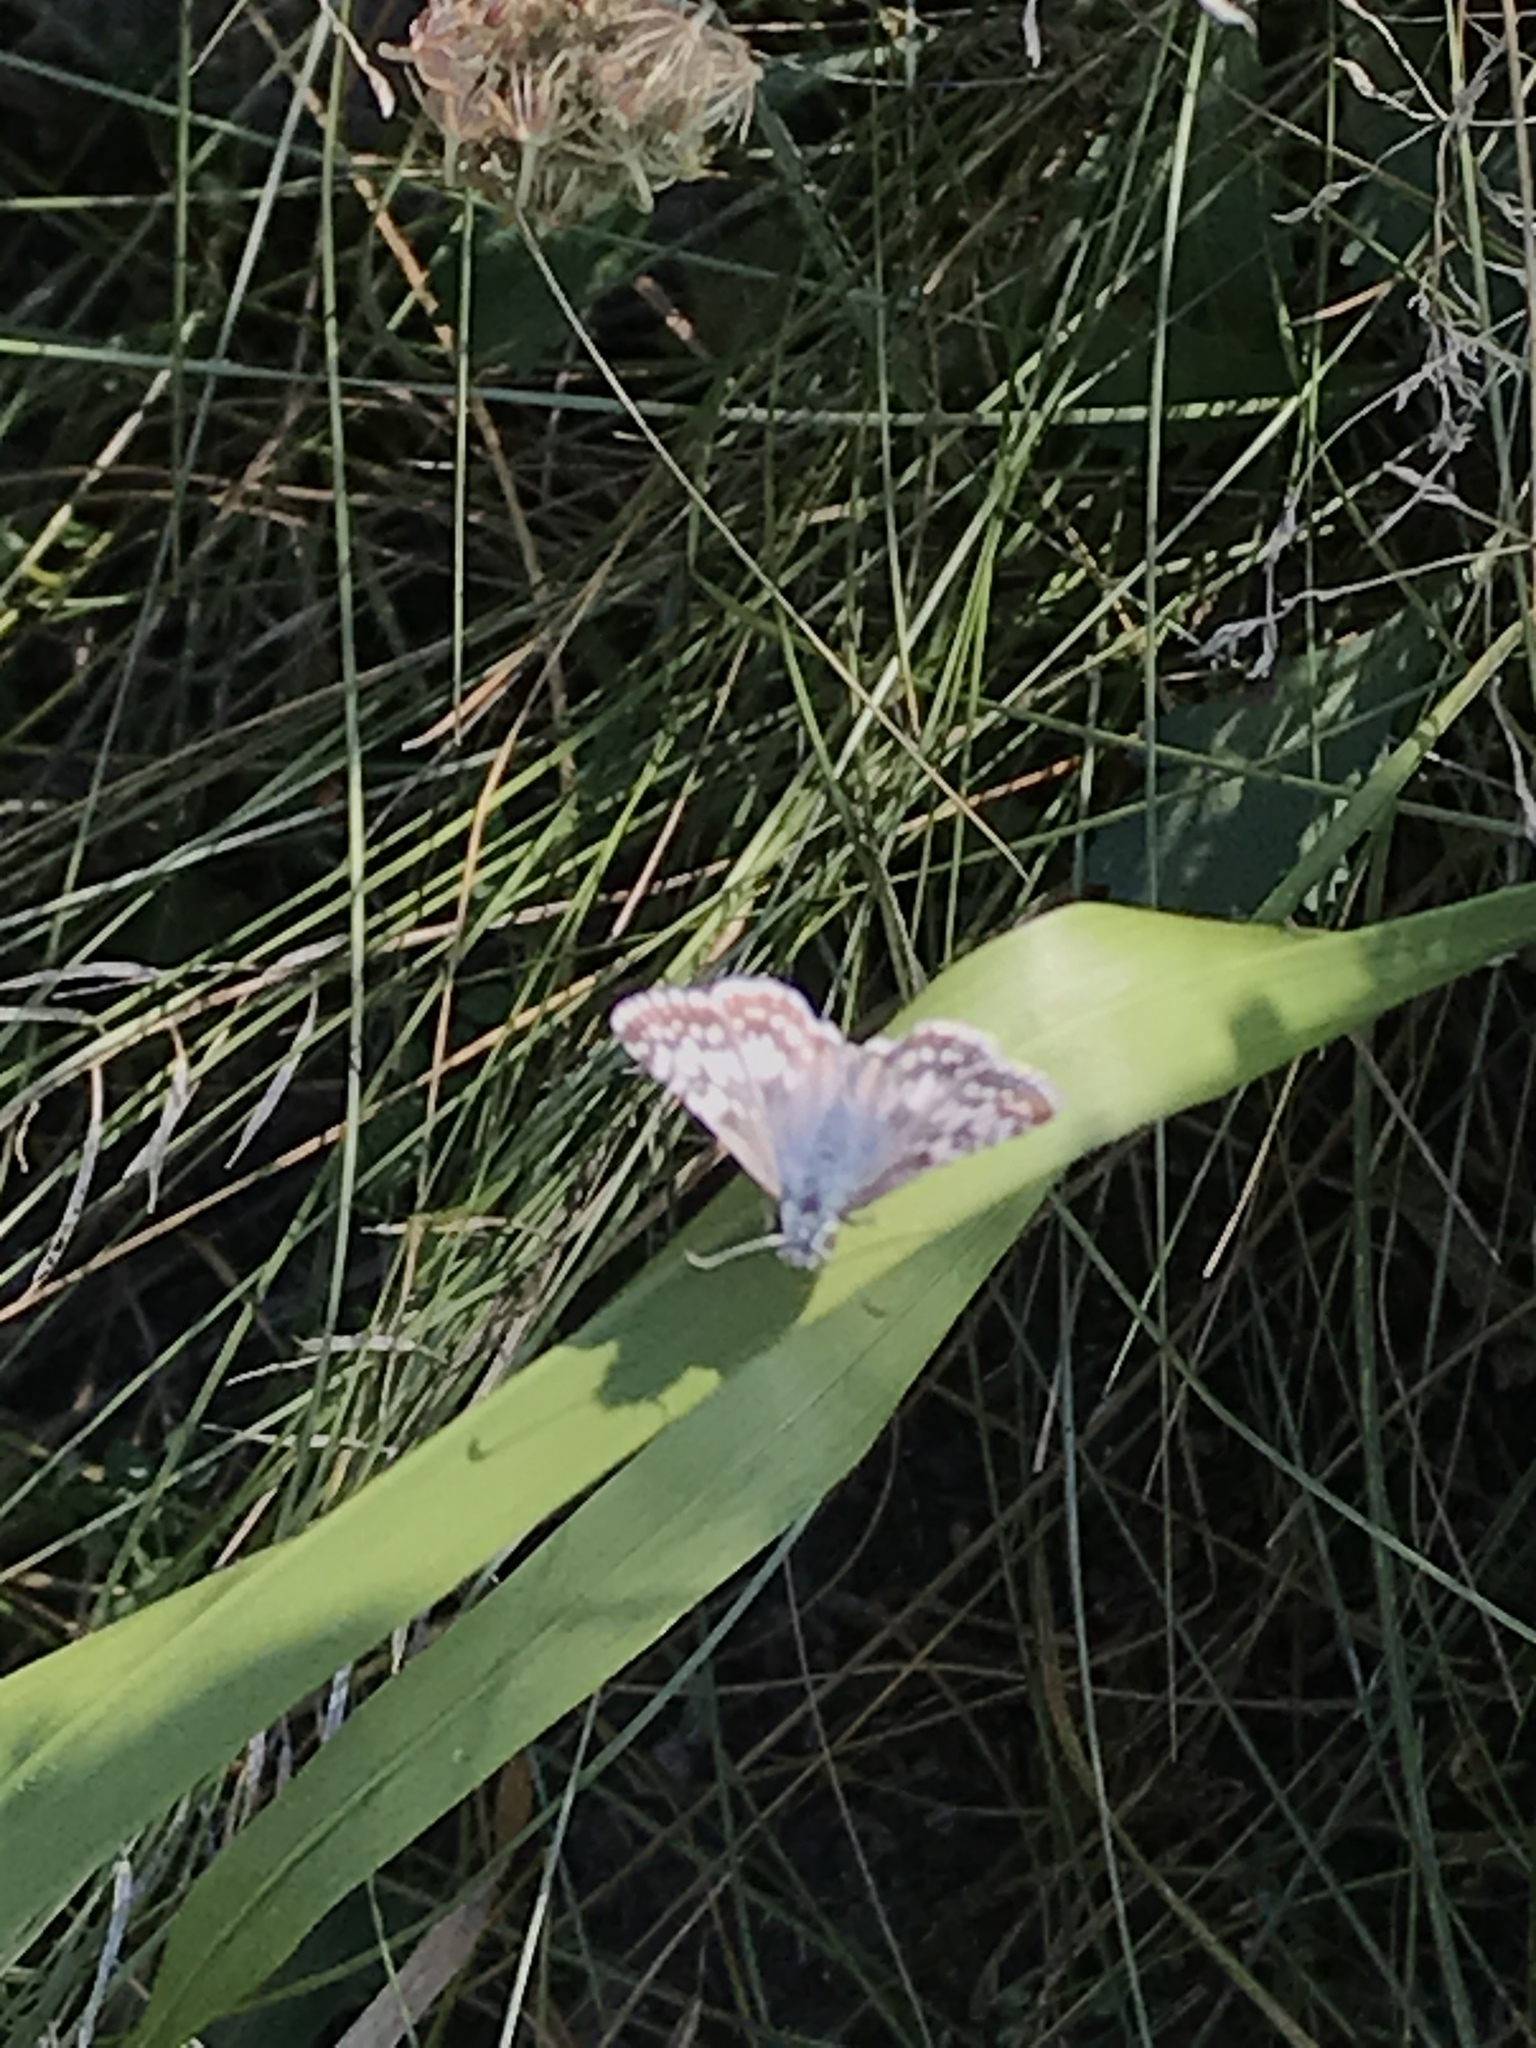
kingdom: Animalia
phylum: Arthropoda
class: Insecta
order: Lepidoptera
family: Hesperiidae
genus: Burnsius
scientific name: Burnsius communis
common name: Common checkered-skipper
